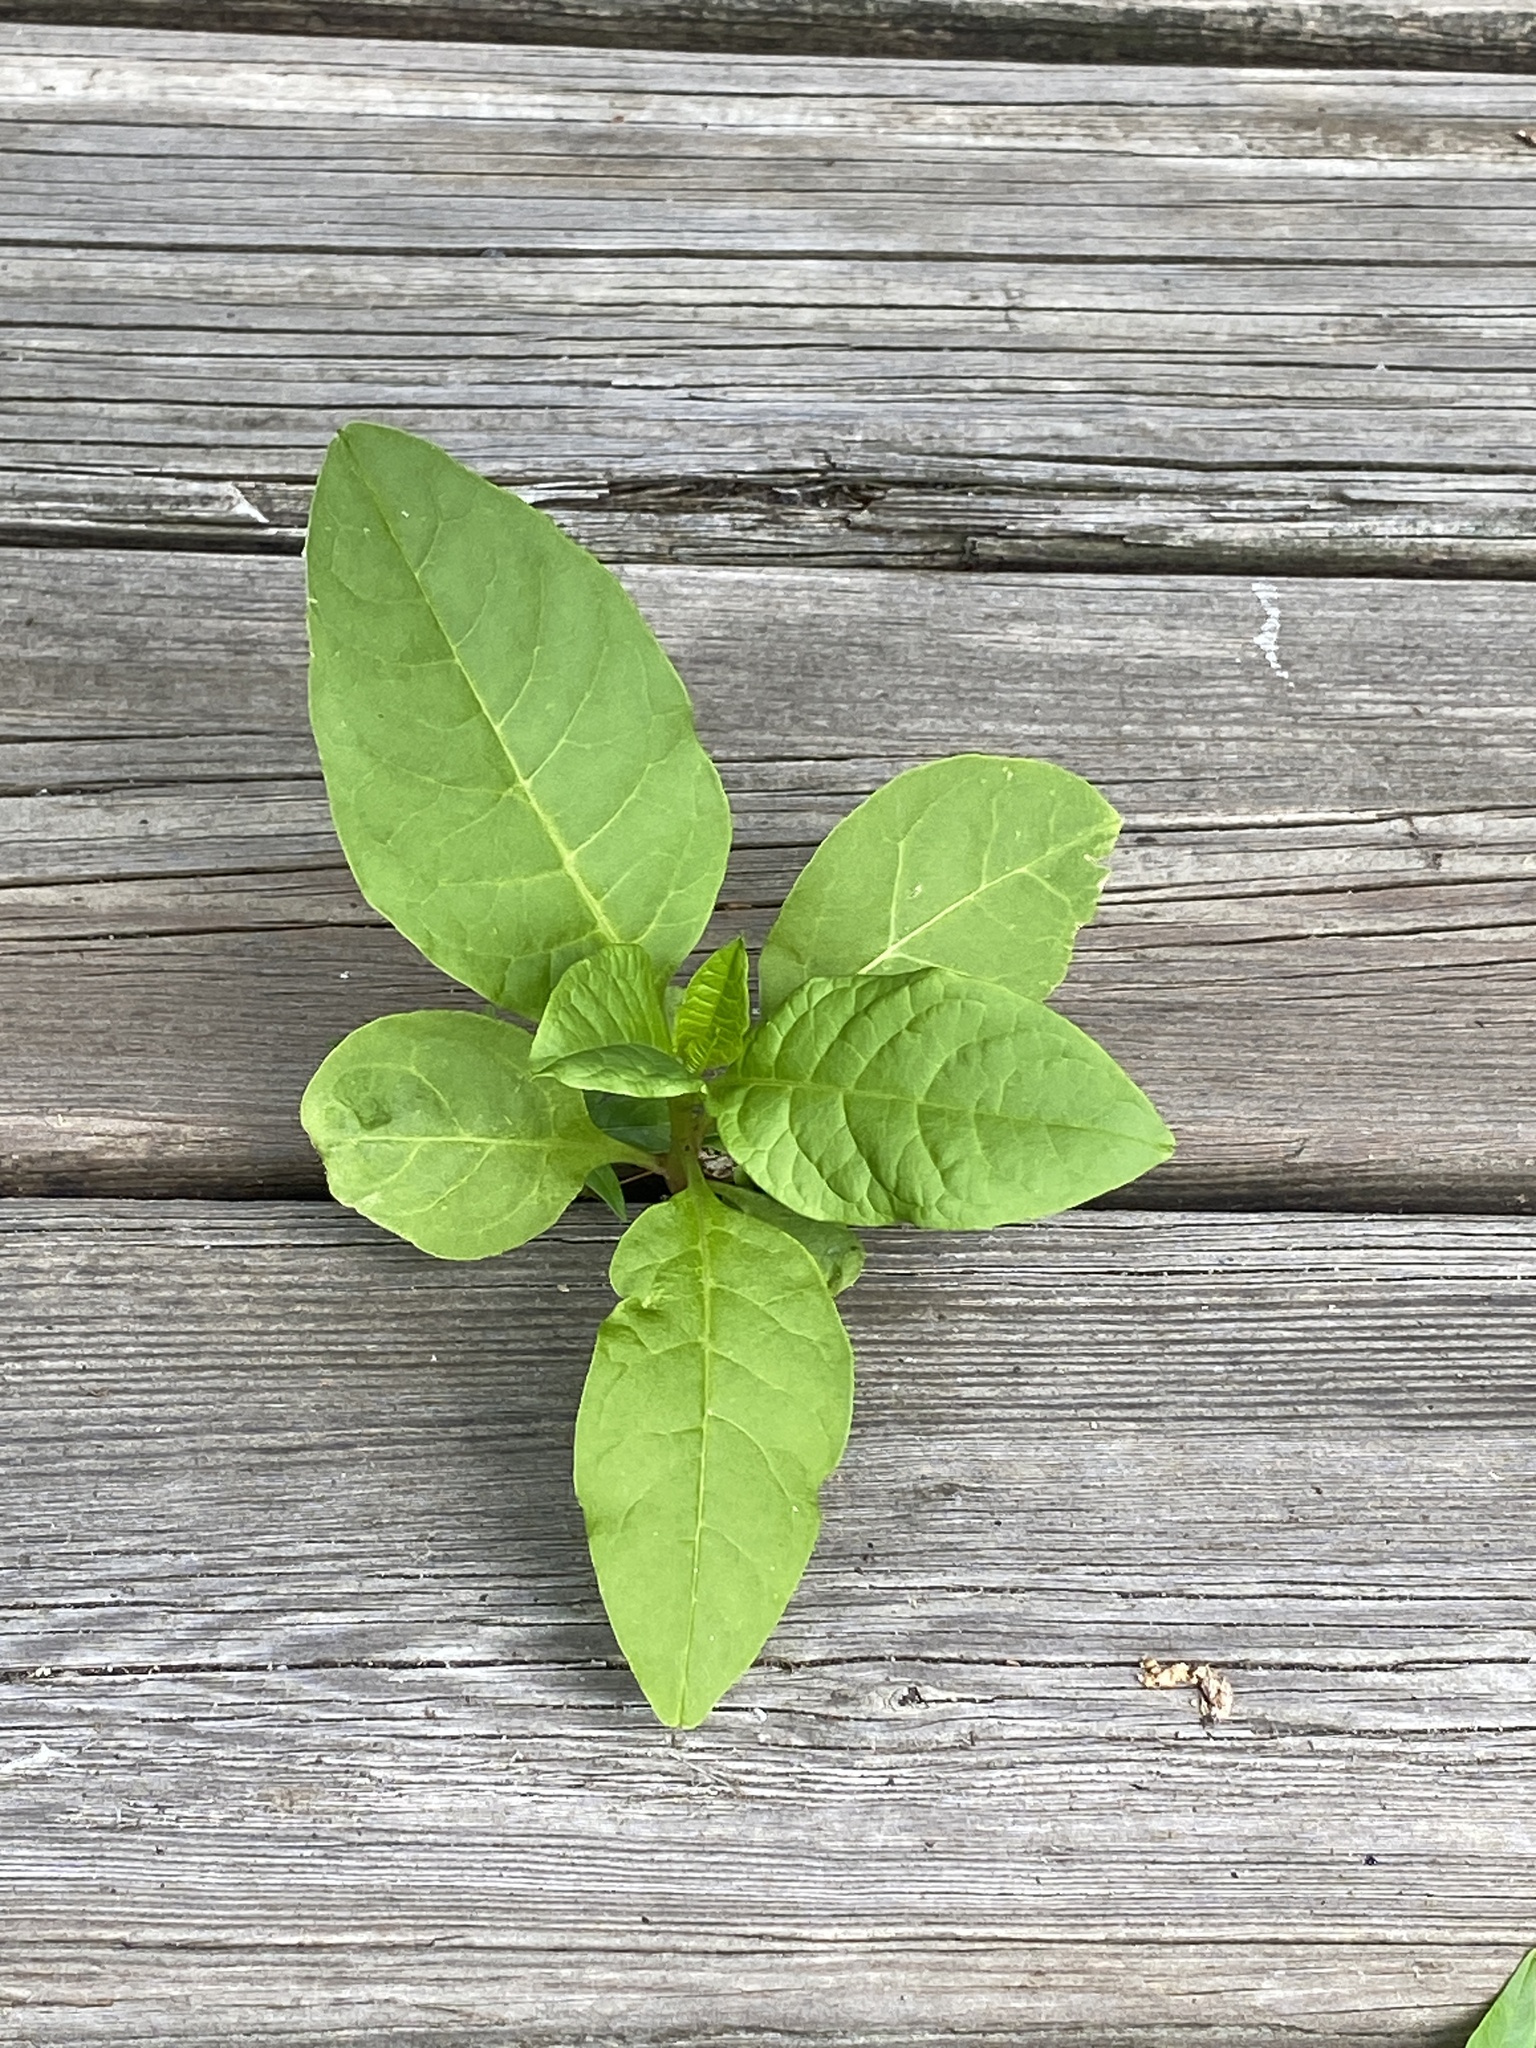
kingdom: Plantae
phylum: Tracheophyta
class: Magnoliopsida
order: Caryophyllales
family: Phytolaccaceae
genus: Phytolacca
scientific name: Phytolacca americana
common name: American pokeweed
